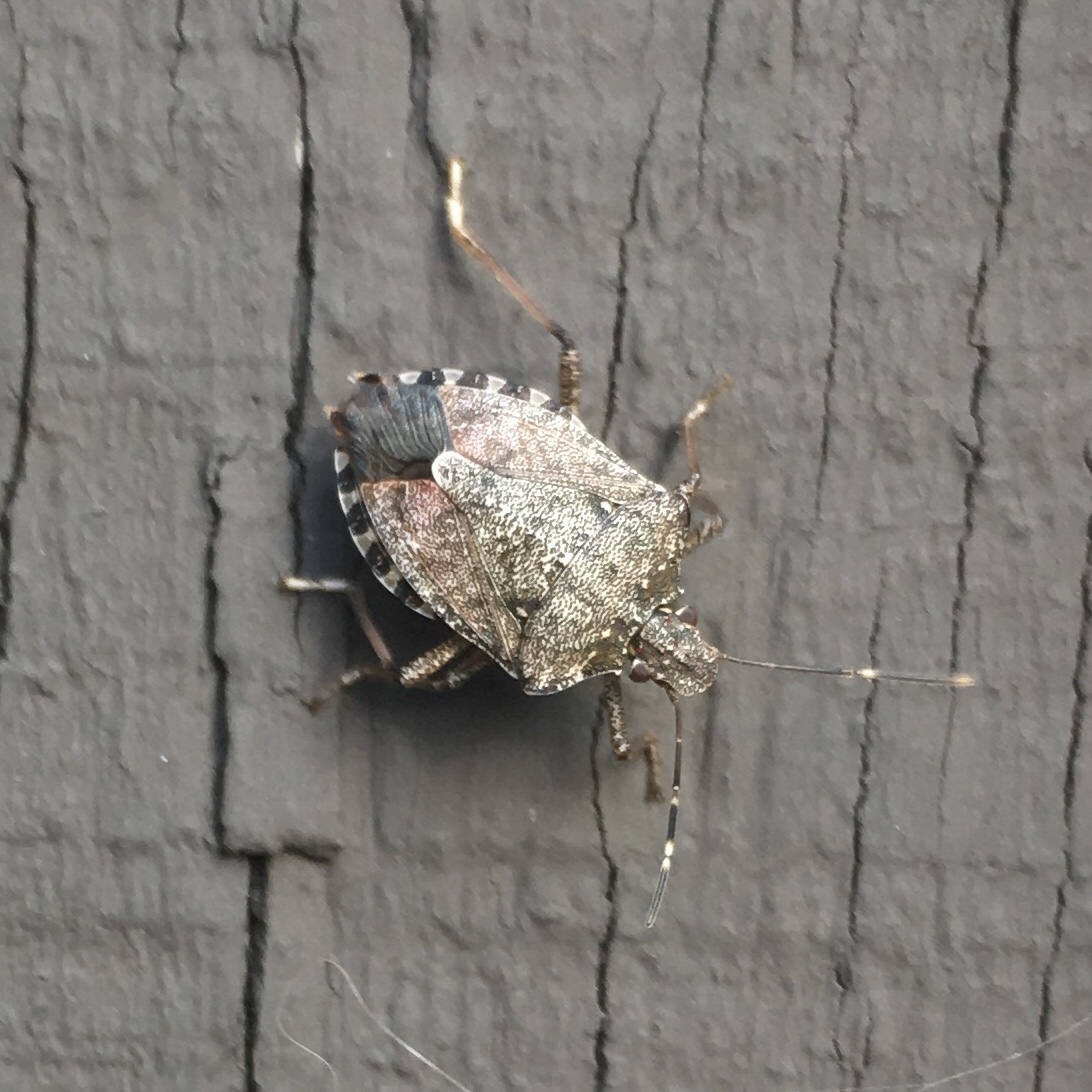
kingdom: Animalia
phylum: Arthropoda
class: Insecta
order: Hemiptera
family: Pentatomidae
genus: Halyomorpha
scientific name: Halyomorpha halys
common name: Brown marmorated stink bug
